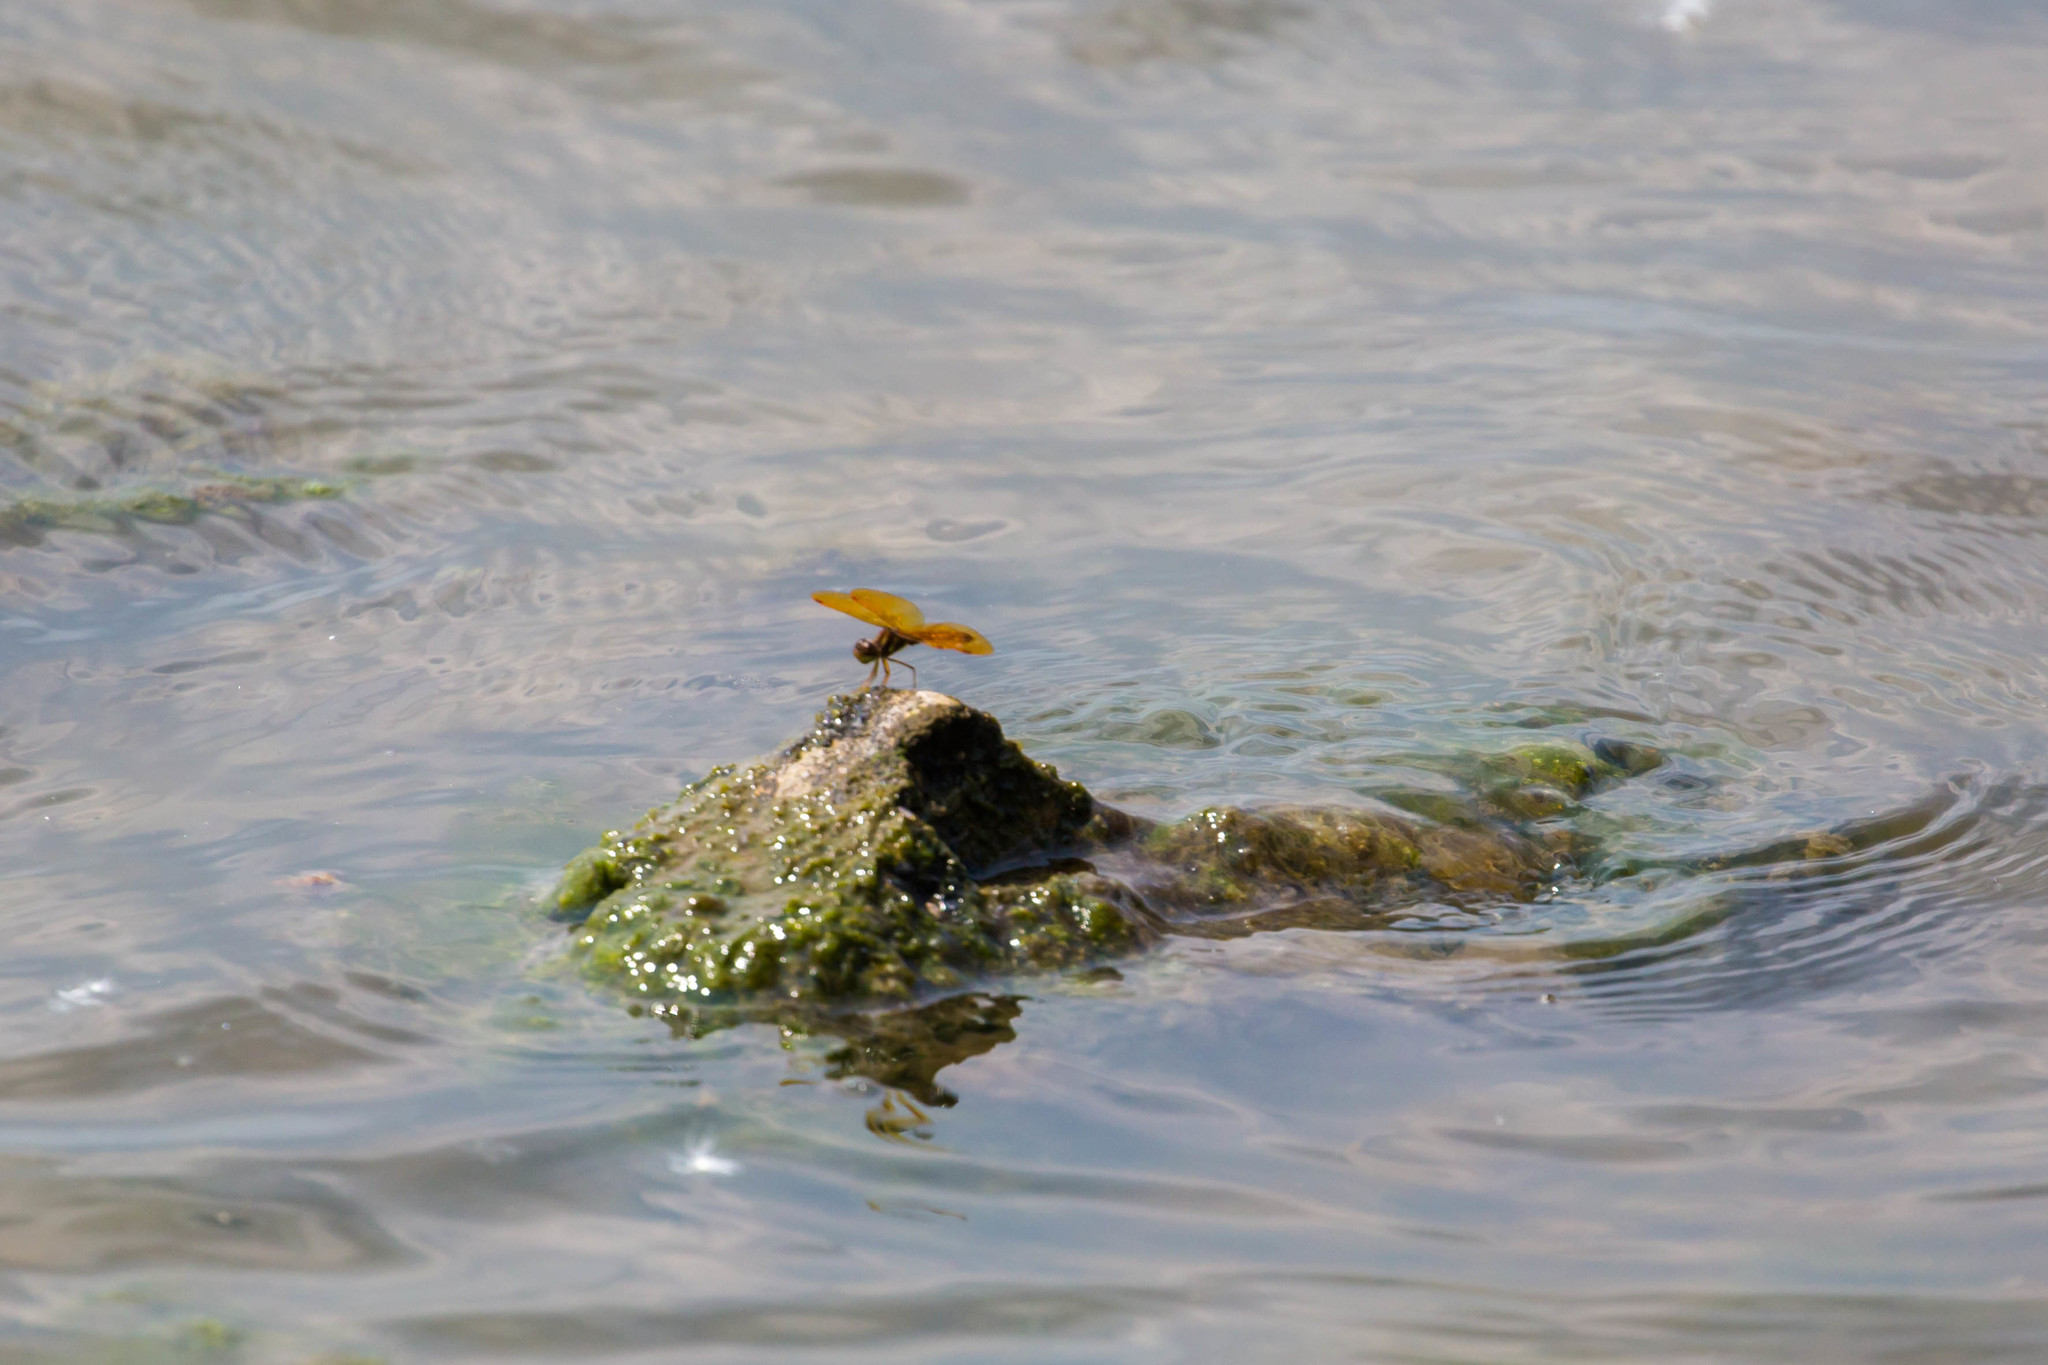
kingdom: Animalia
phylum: Arthropoda
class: Insecta
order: Odonata
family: Libellulidae
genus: Perithemis
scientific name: Perithemis tenera
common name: Eastern amberwing
